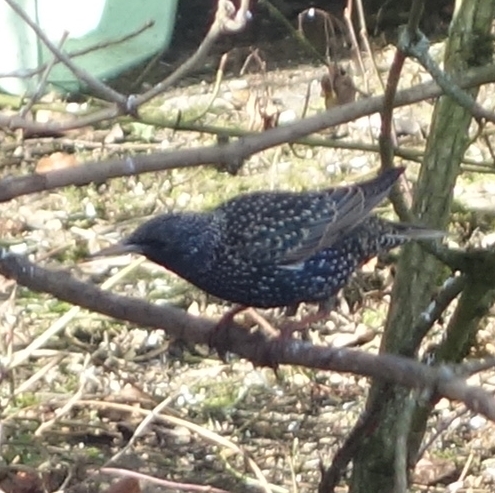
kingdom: Animalia
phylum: Chordata
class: Aves
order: Passeriformes
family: Sturnidae
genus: Sturnus
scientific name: Sturnus vulgaris
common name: Common starling
